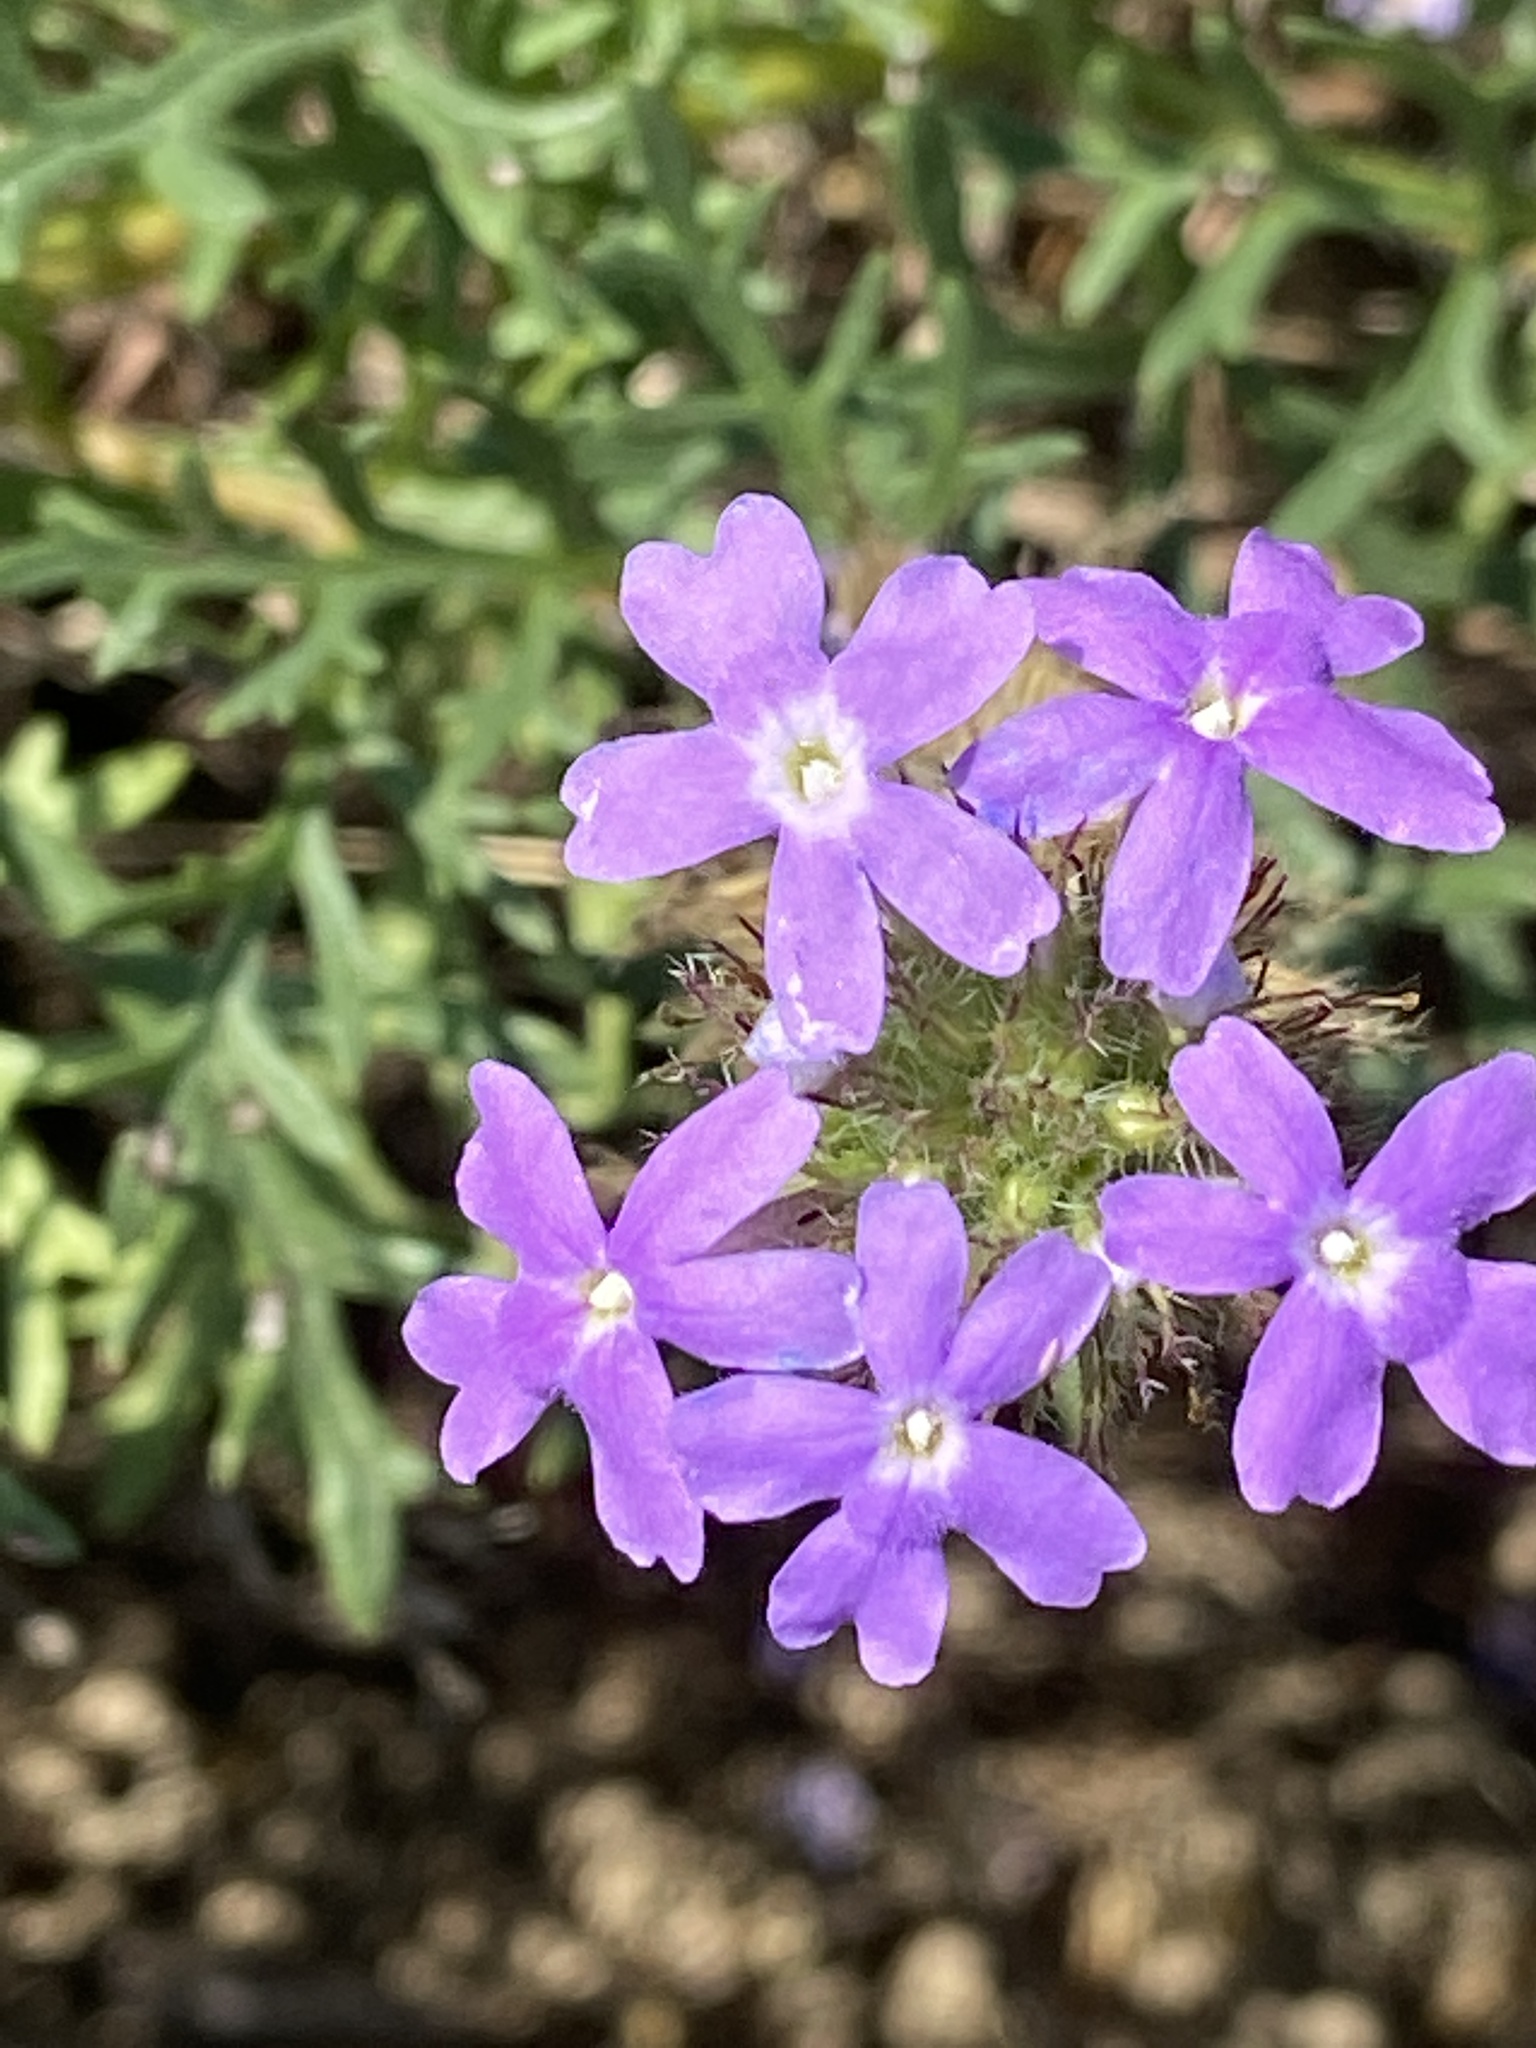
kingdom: Plantae
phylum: Tracheophyta
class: Magnoliopsida
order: Lamiales
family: Verbenaceae
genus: Verbena
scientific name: Verbena bipinnatifida
